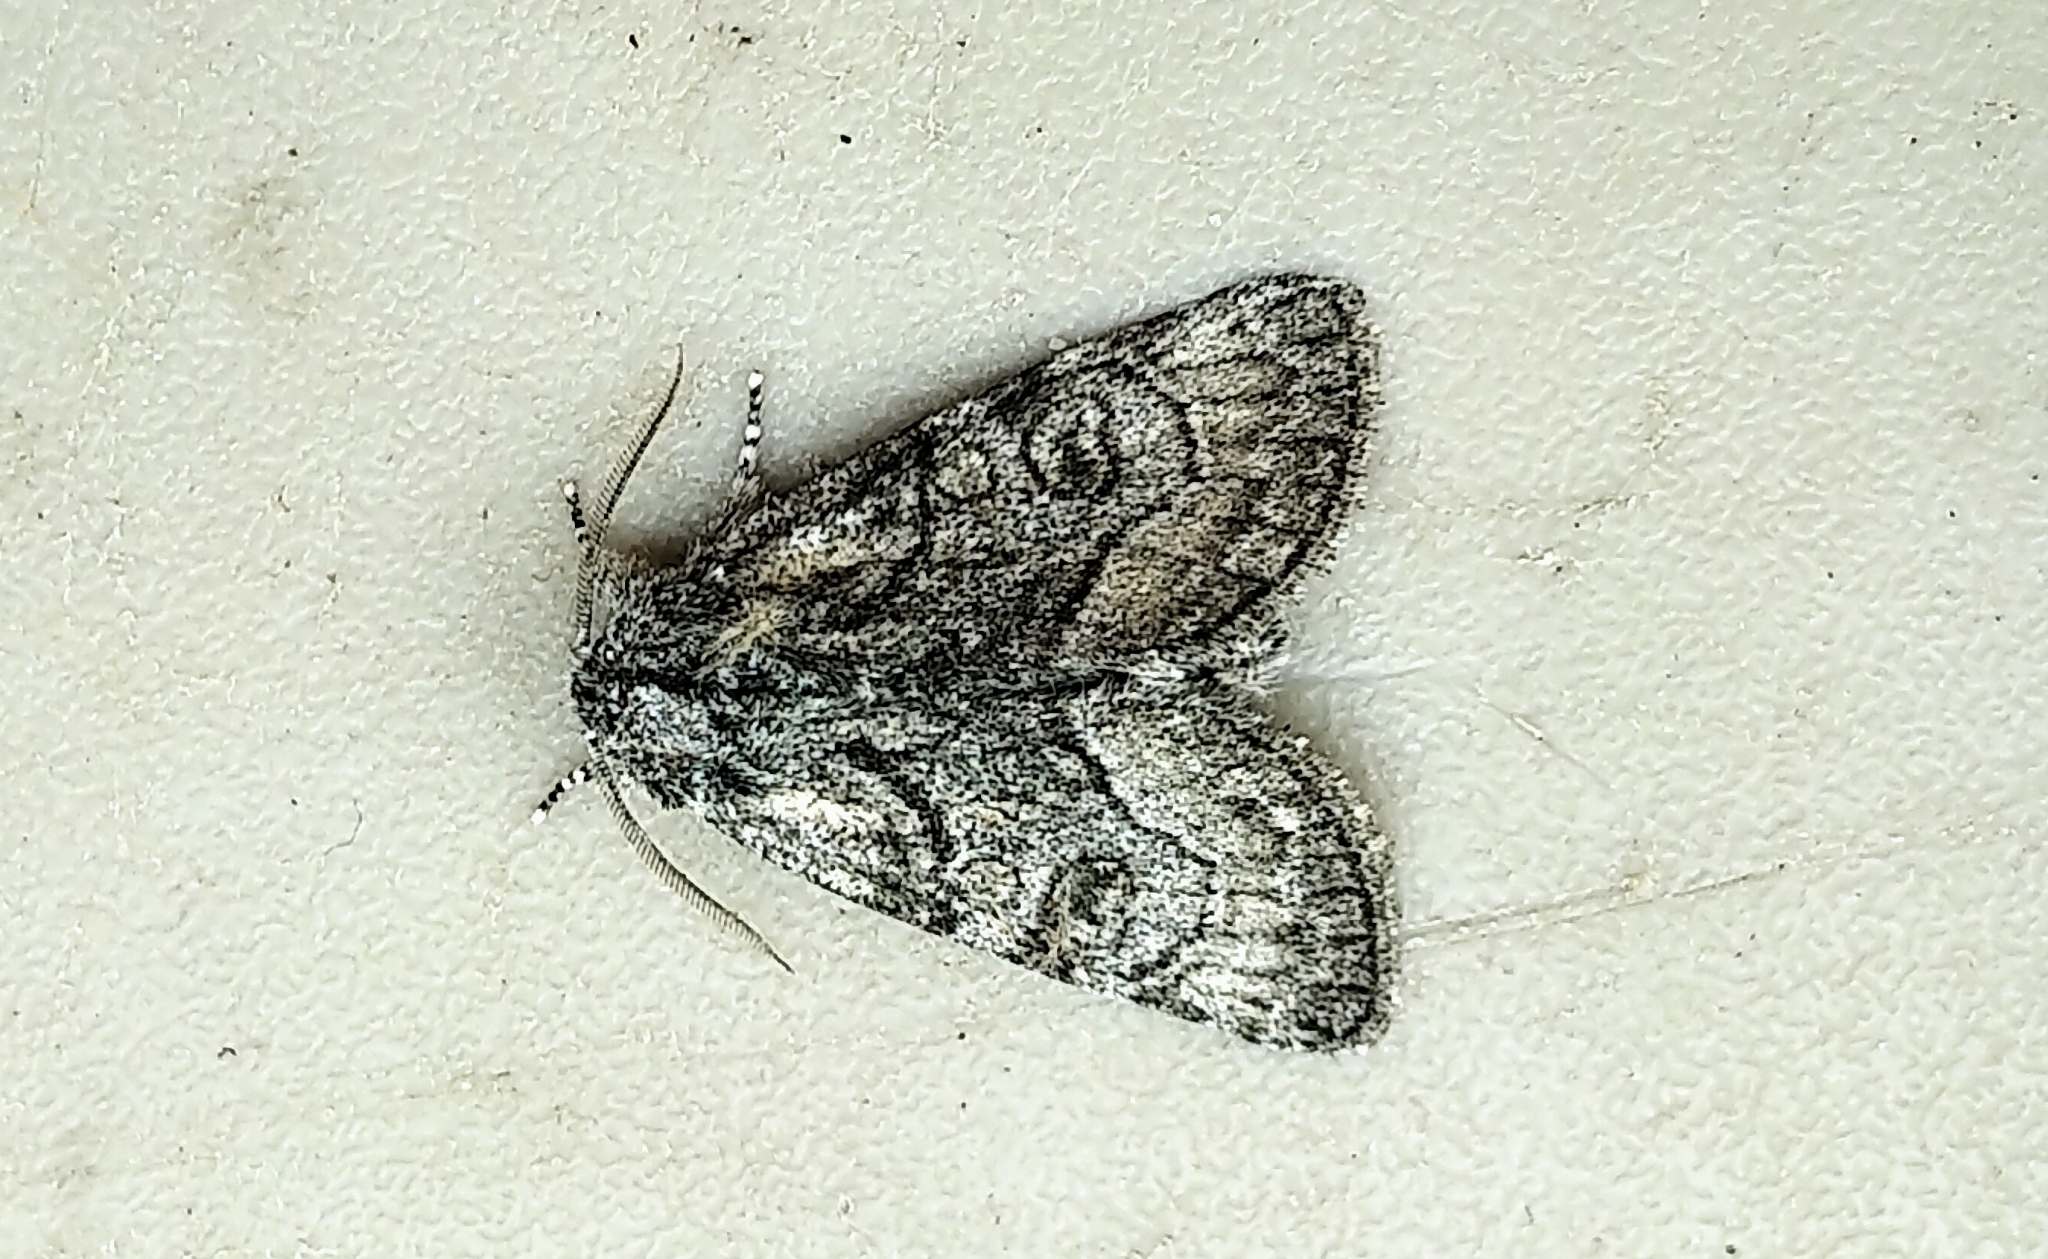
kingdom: Animalia
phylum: Arthropoda
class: Insecta
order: Lepidoptera
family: Noctuidae
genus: Raphia
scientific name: Raphia frater
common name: Brother
